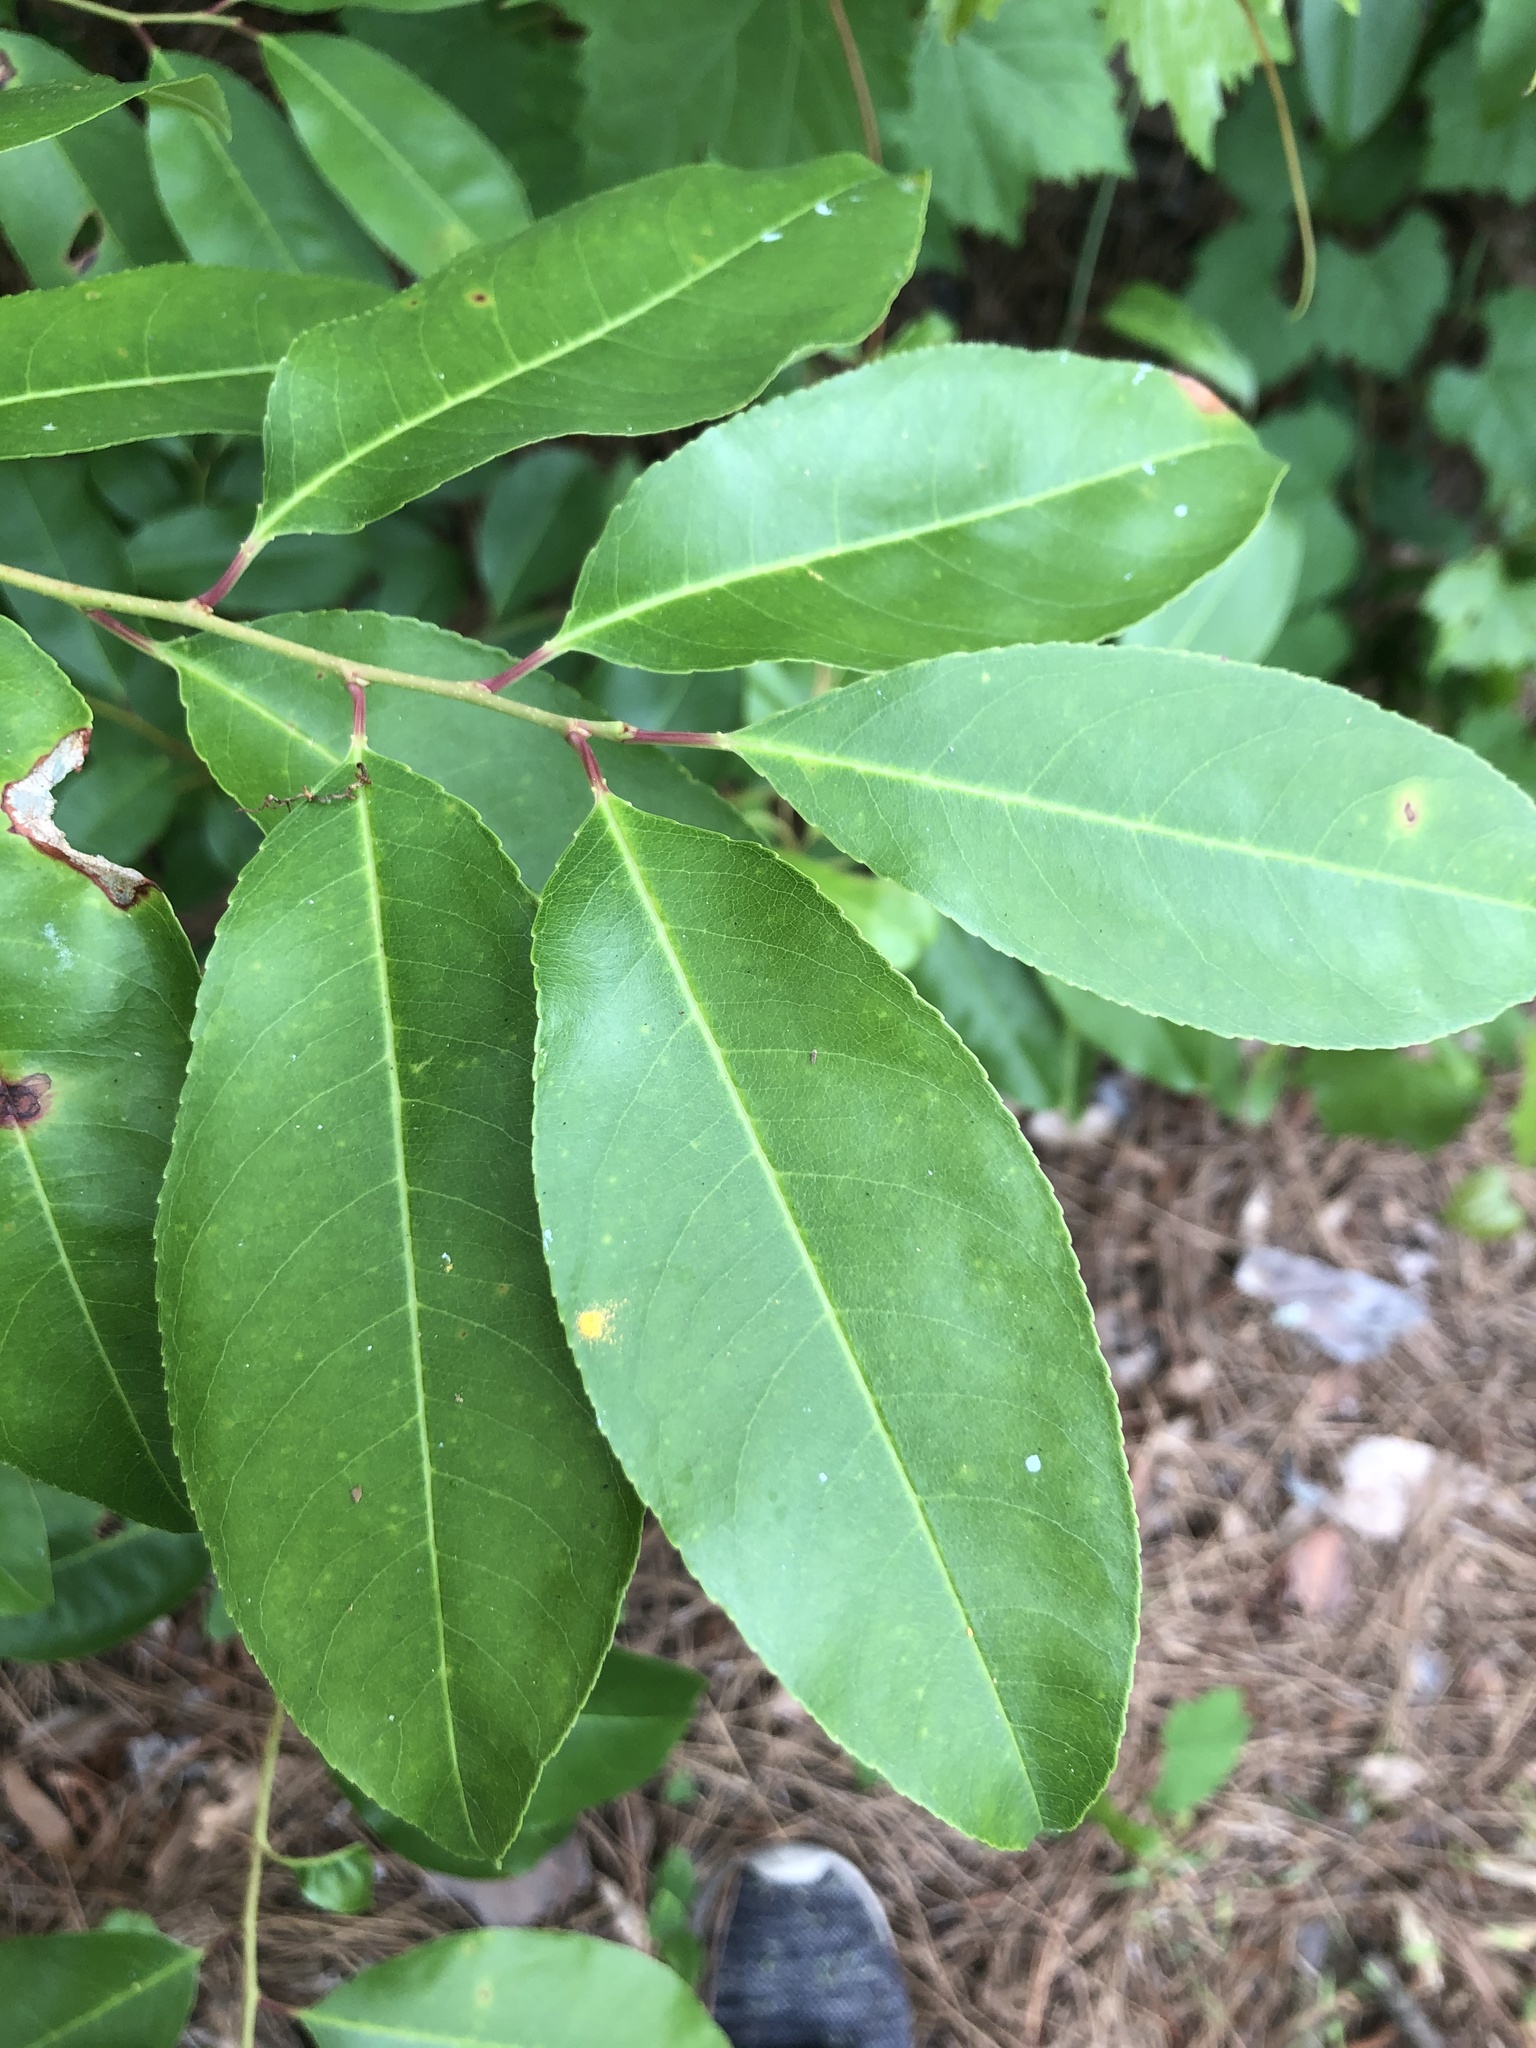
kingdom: Plantae
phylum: Tracheophyta
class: Magnoliopsida
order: Rosales
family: Rosaceae
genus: Prunus
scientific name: Prunus serotina
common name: Black cherry
